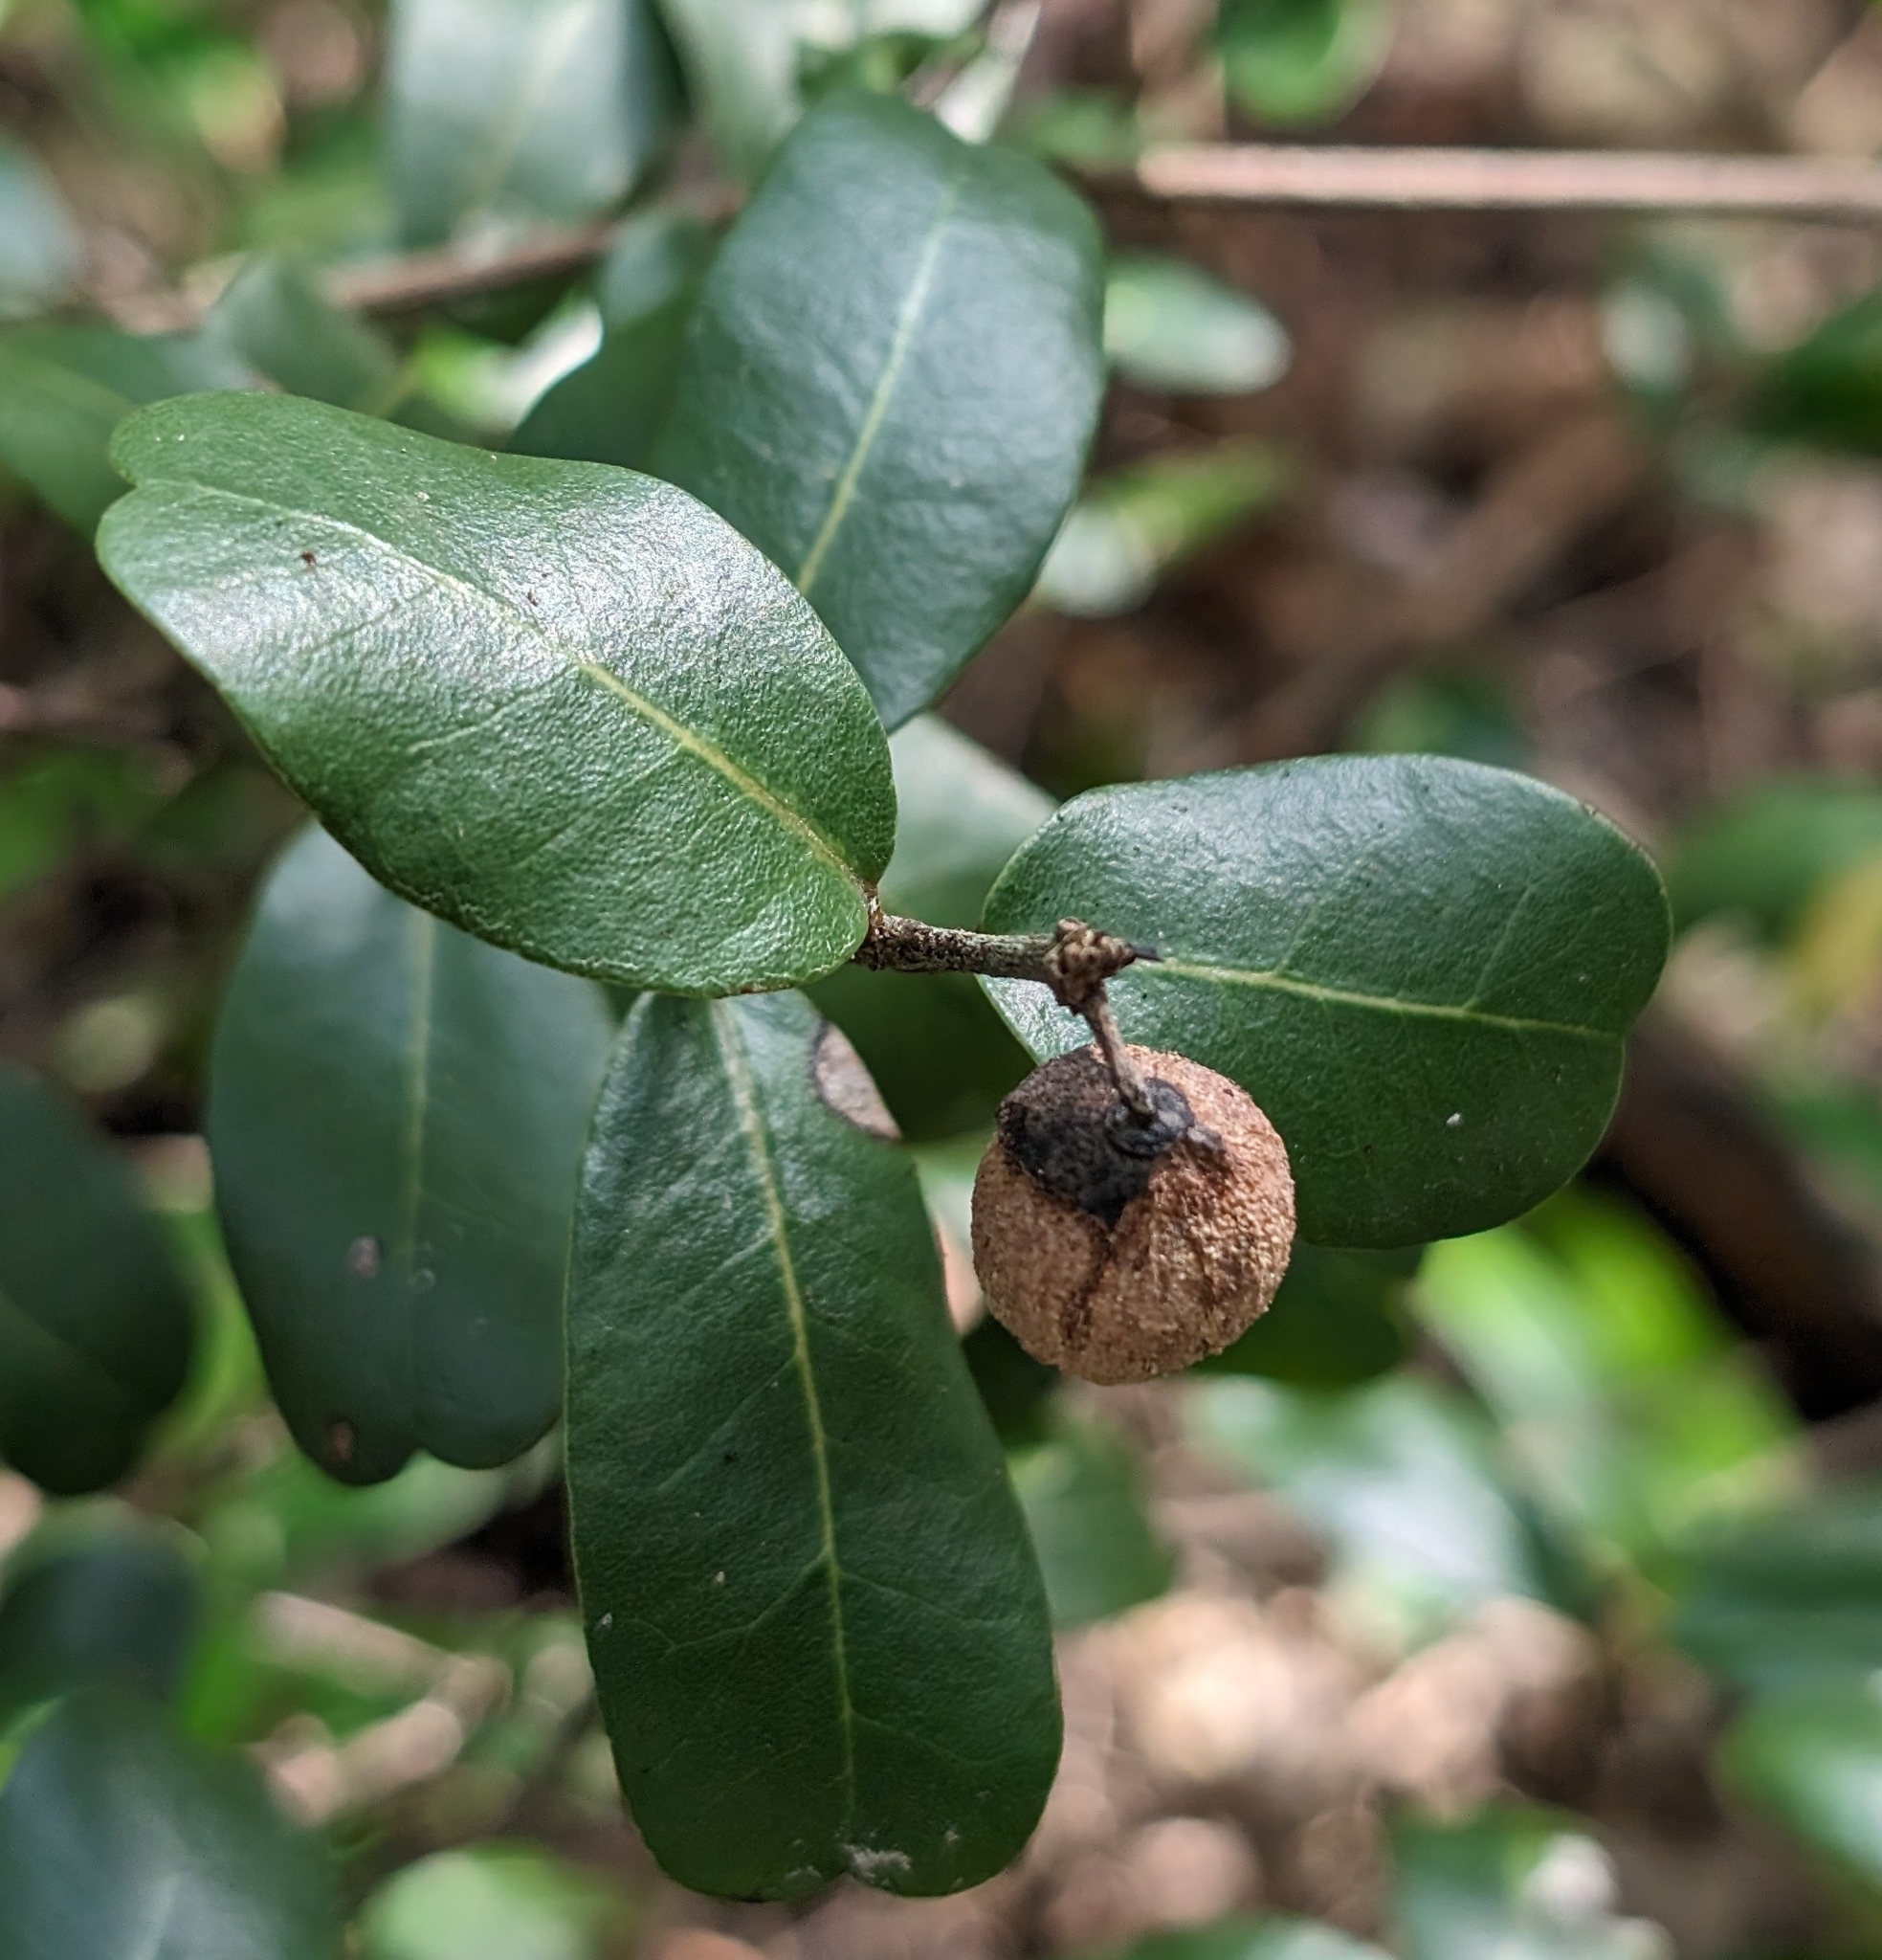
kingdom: Plantae
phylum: Tracheophyta
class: Magnoliopsida
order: Rosales
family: Rhamnaceae
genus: Reynosia
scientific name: Reynosia septentrionalis
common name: Red ironwood
